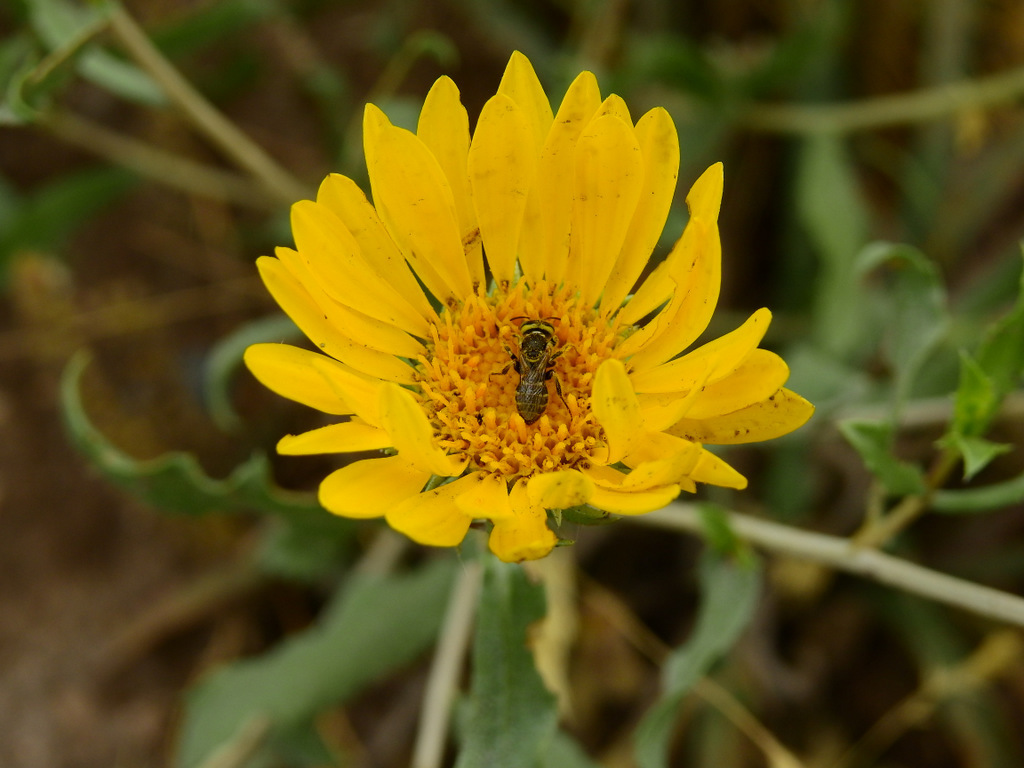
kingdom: Plantae
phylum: Tracheophyta
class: Magnoliopsida
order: Asterales
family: Asteraceae
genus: Grindelia
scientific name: Grindelia pulchella
